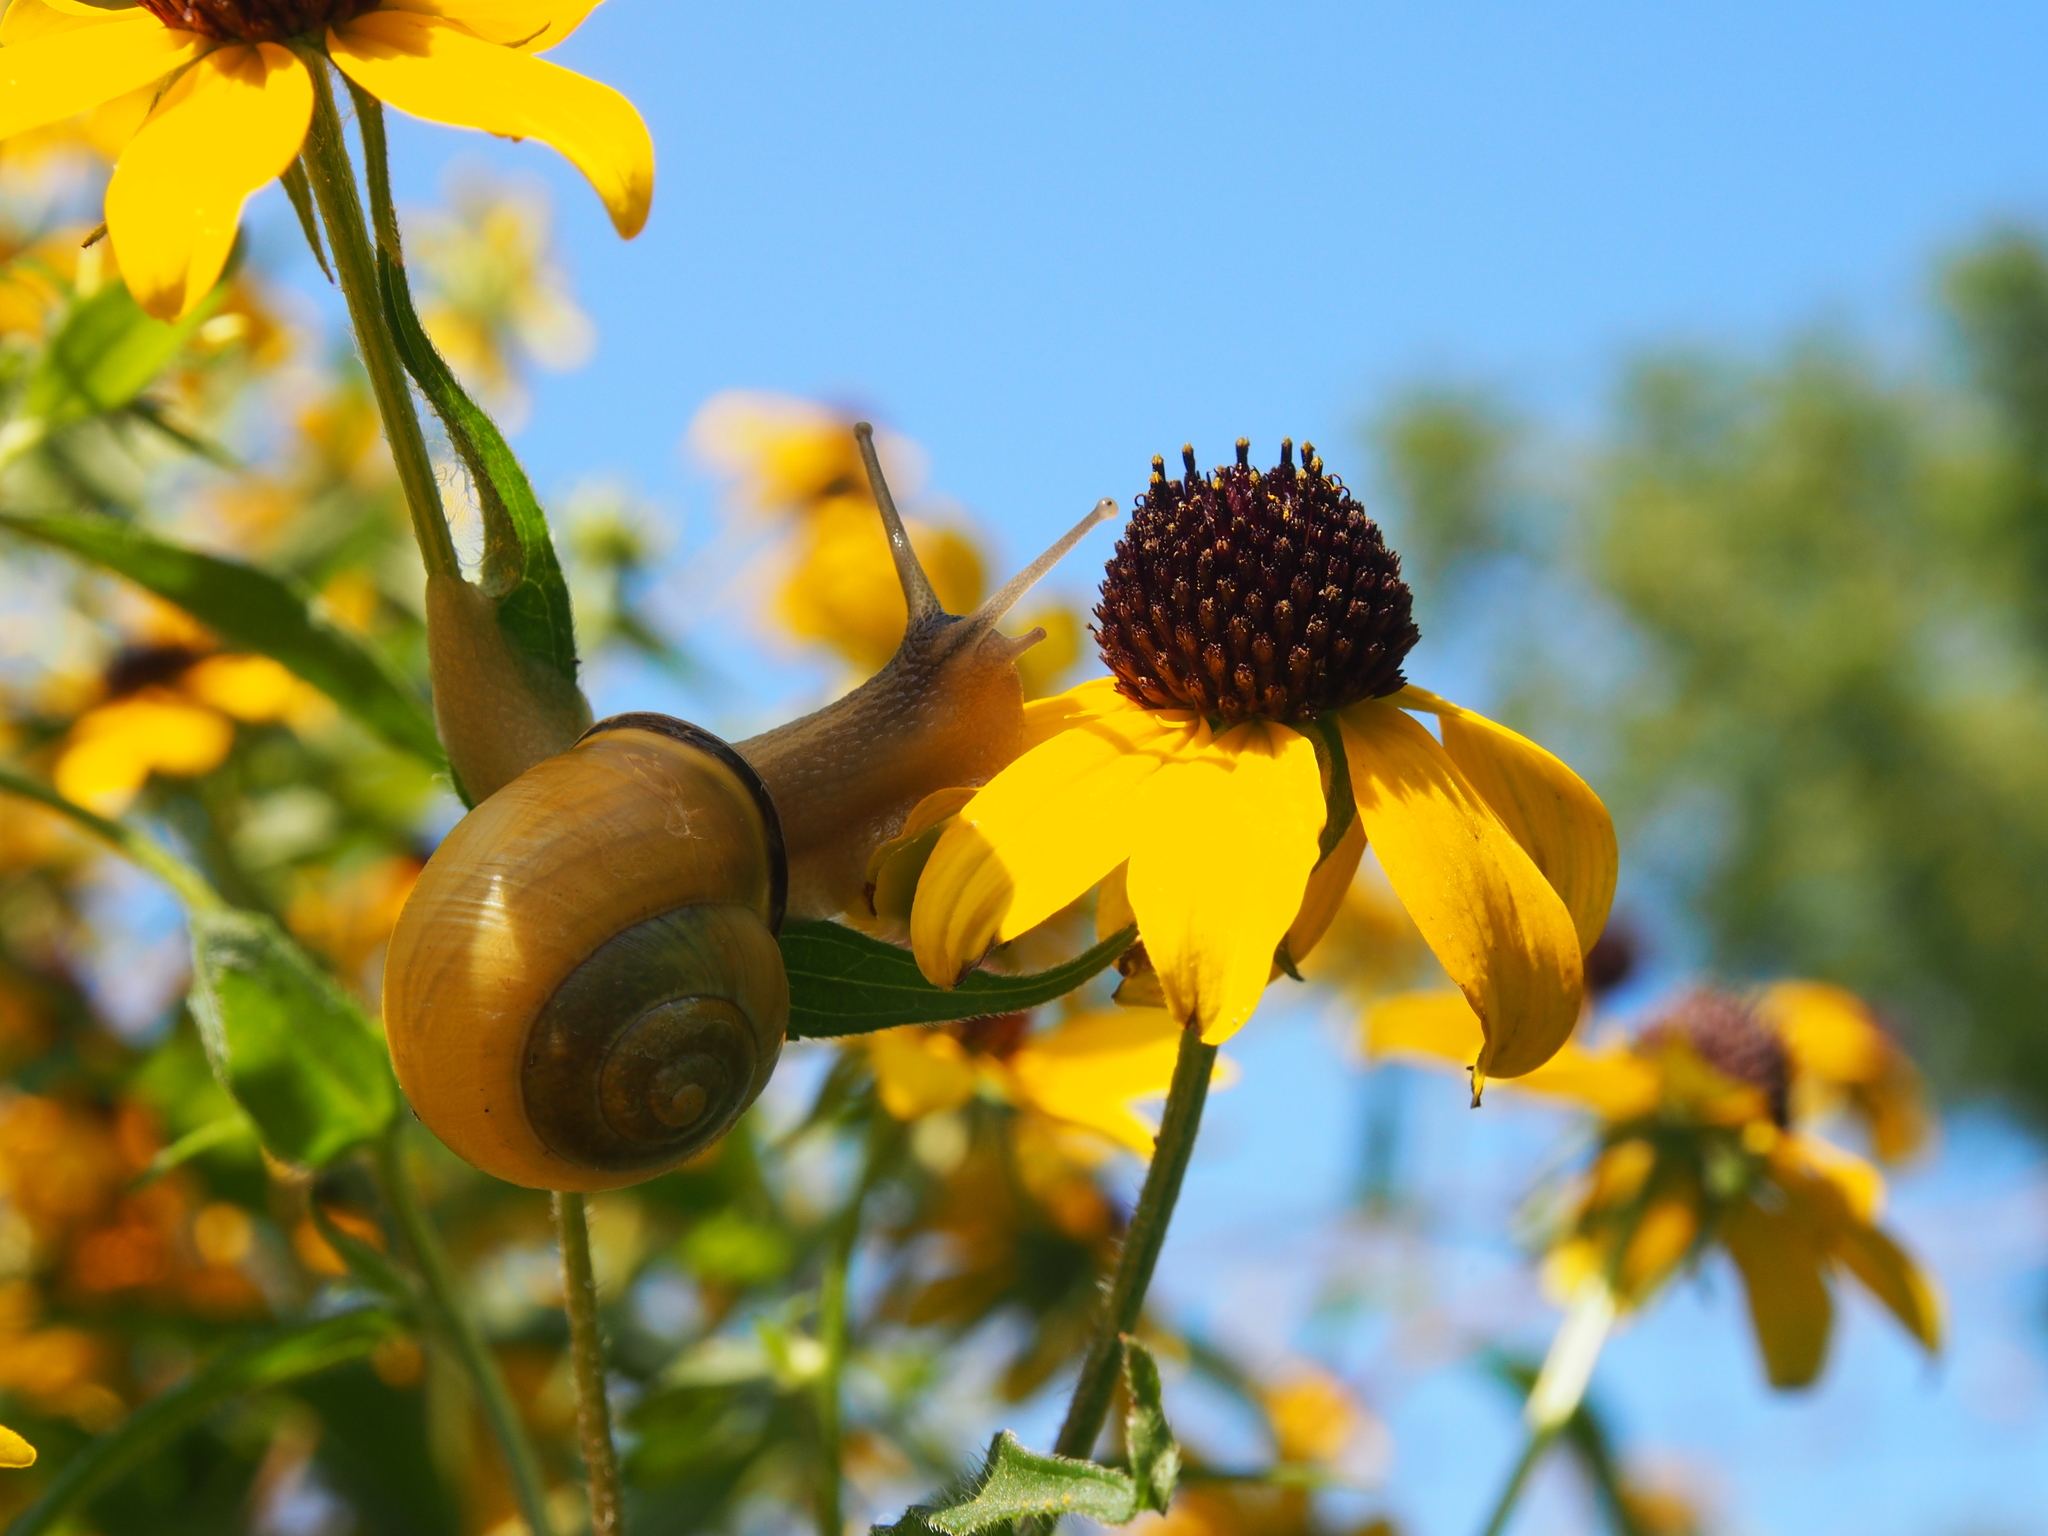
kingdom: Animalia
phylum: Mollusca
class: Gastropoda
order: Stylommatophora
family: Helicidae
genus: Cepaea
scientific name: Cepaea nemoralis
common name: Grovesnail
